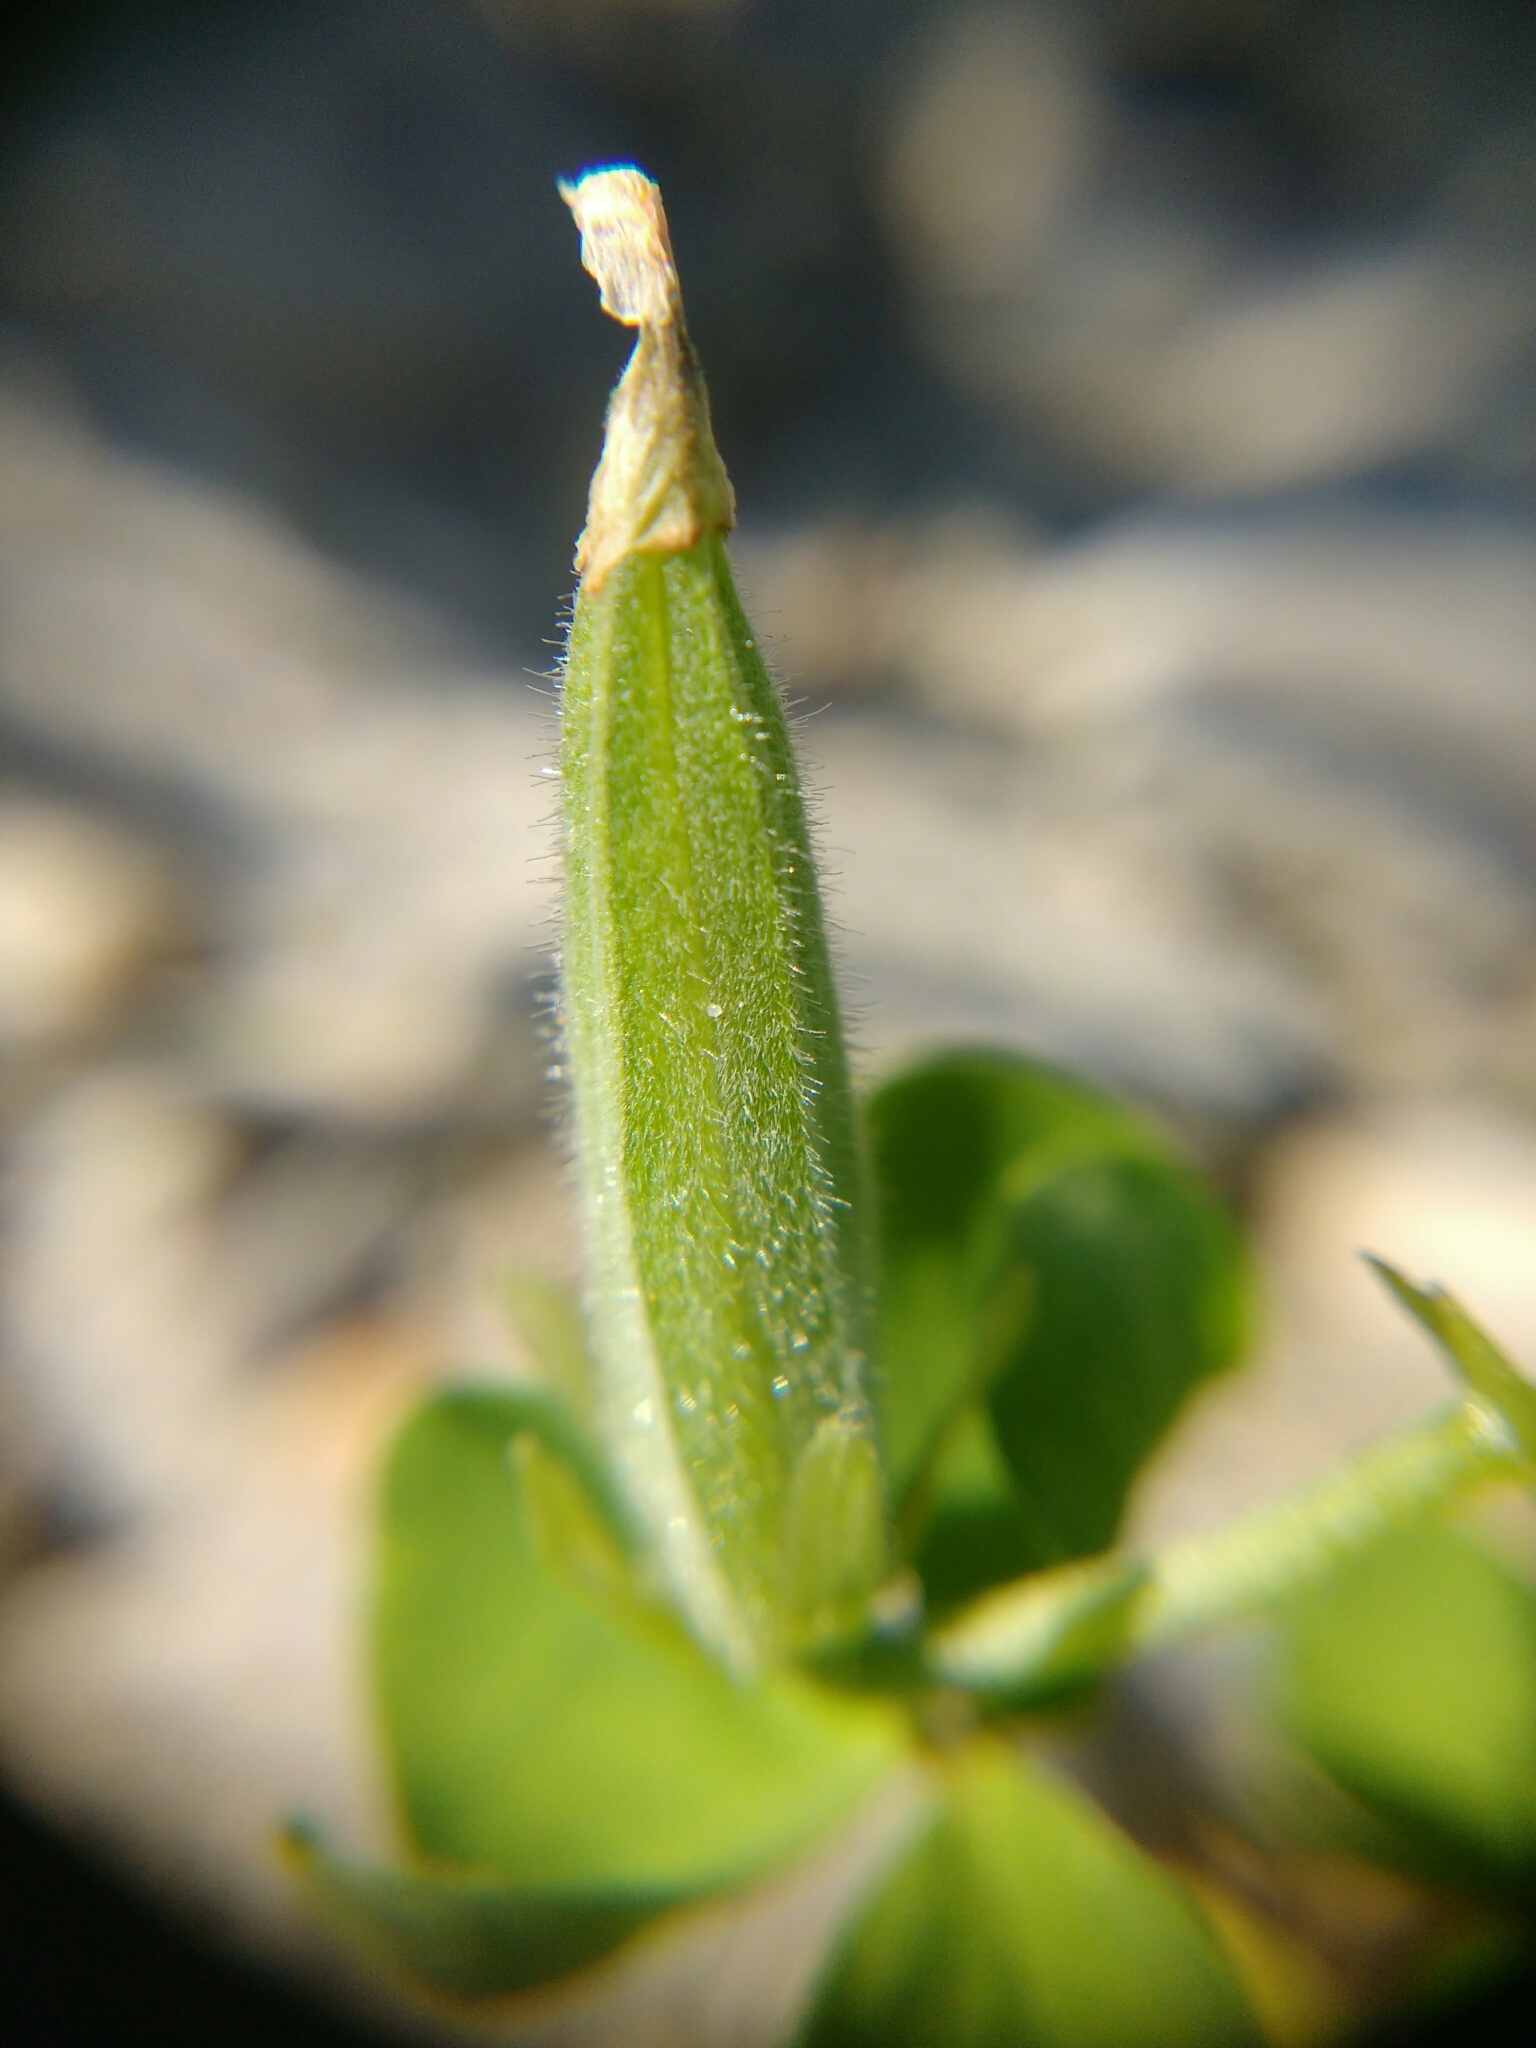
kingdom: Plantae
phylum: Tracheophyta
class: Magnoliopsida
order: Oxalidales
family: Oxalidaceae
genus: Oxalis
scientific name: Oxalis dillenii
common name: Sussex yellow-sorrel
